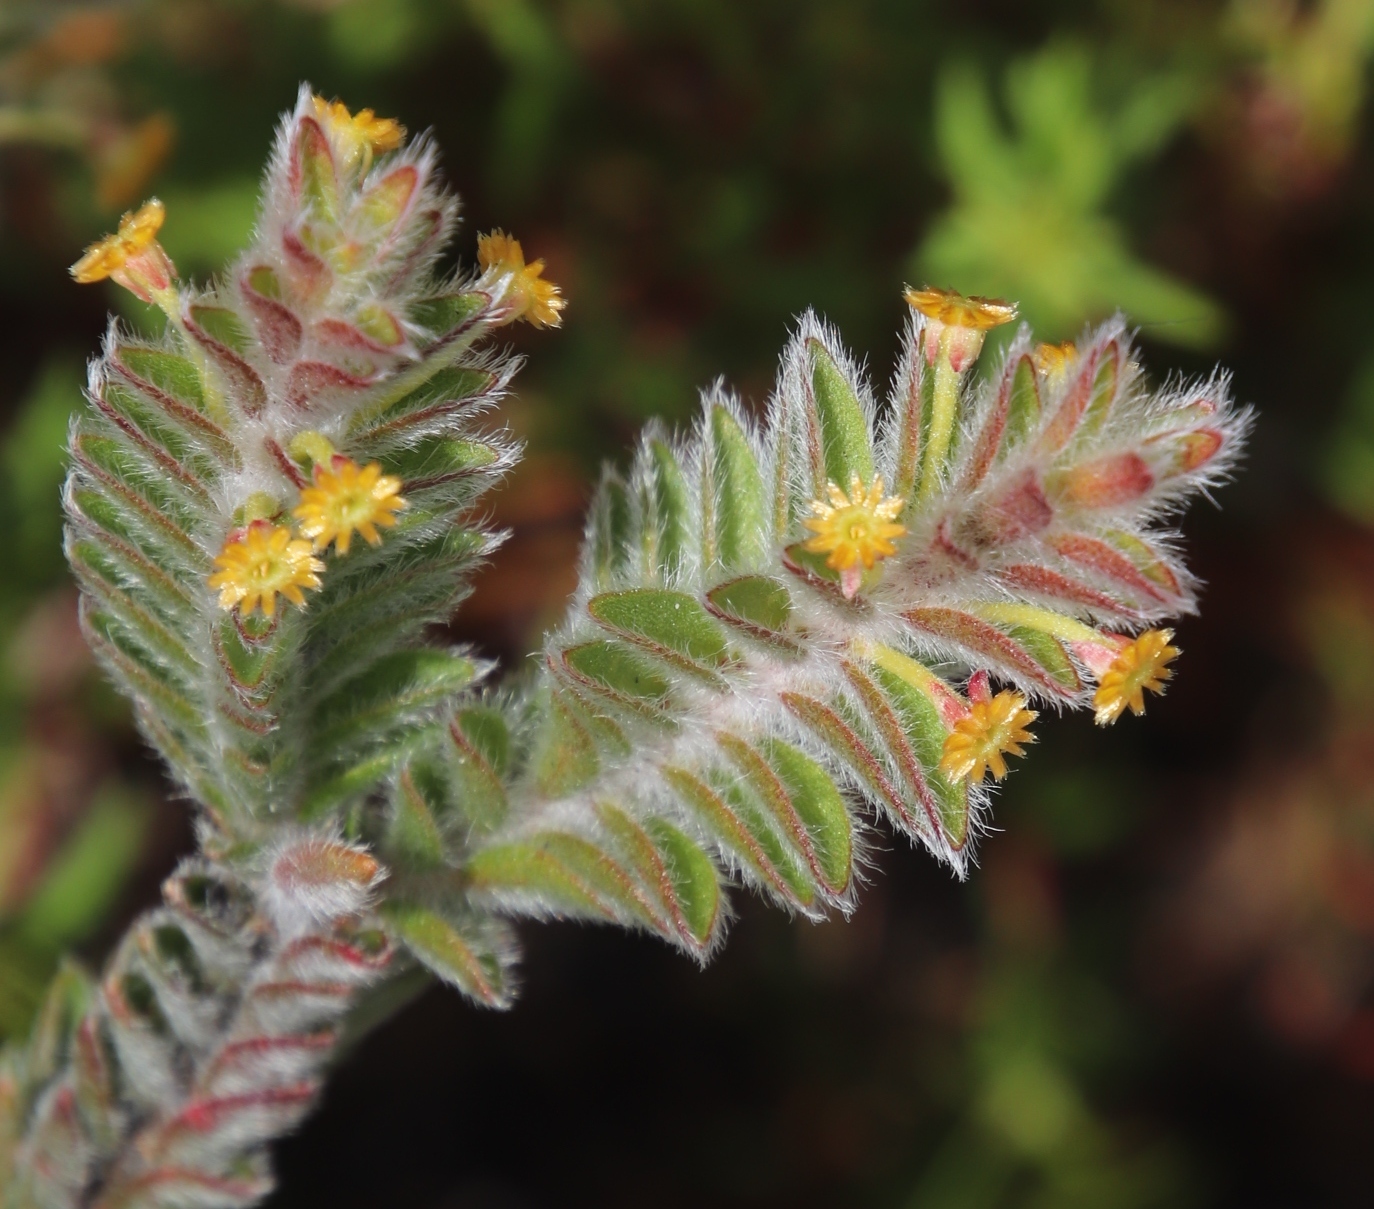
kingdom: Plantae
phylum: Tracheophyta
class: Magnoliopsida
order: Malvales
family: Thymelaeaceae
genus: Struthiola
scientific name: Struthiola tomentosa
